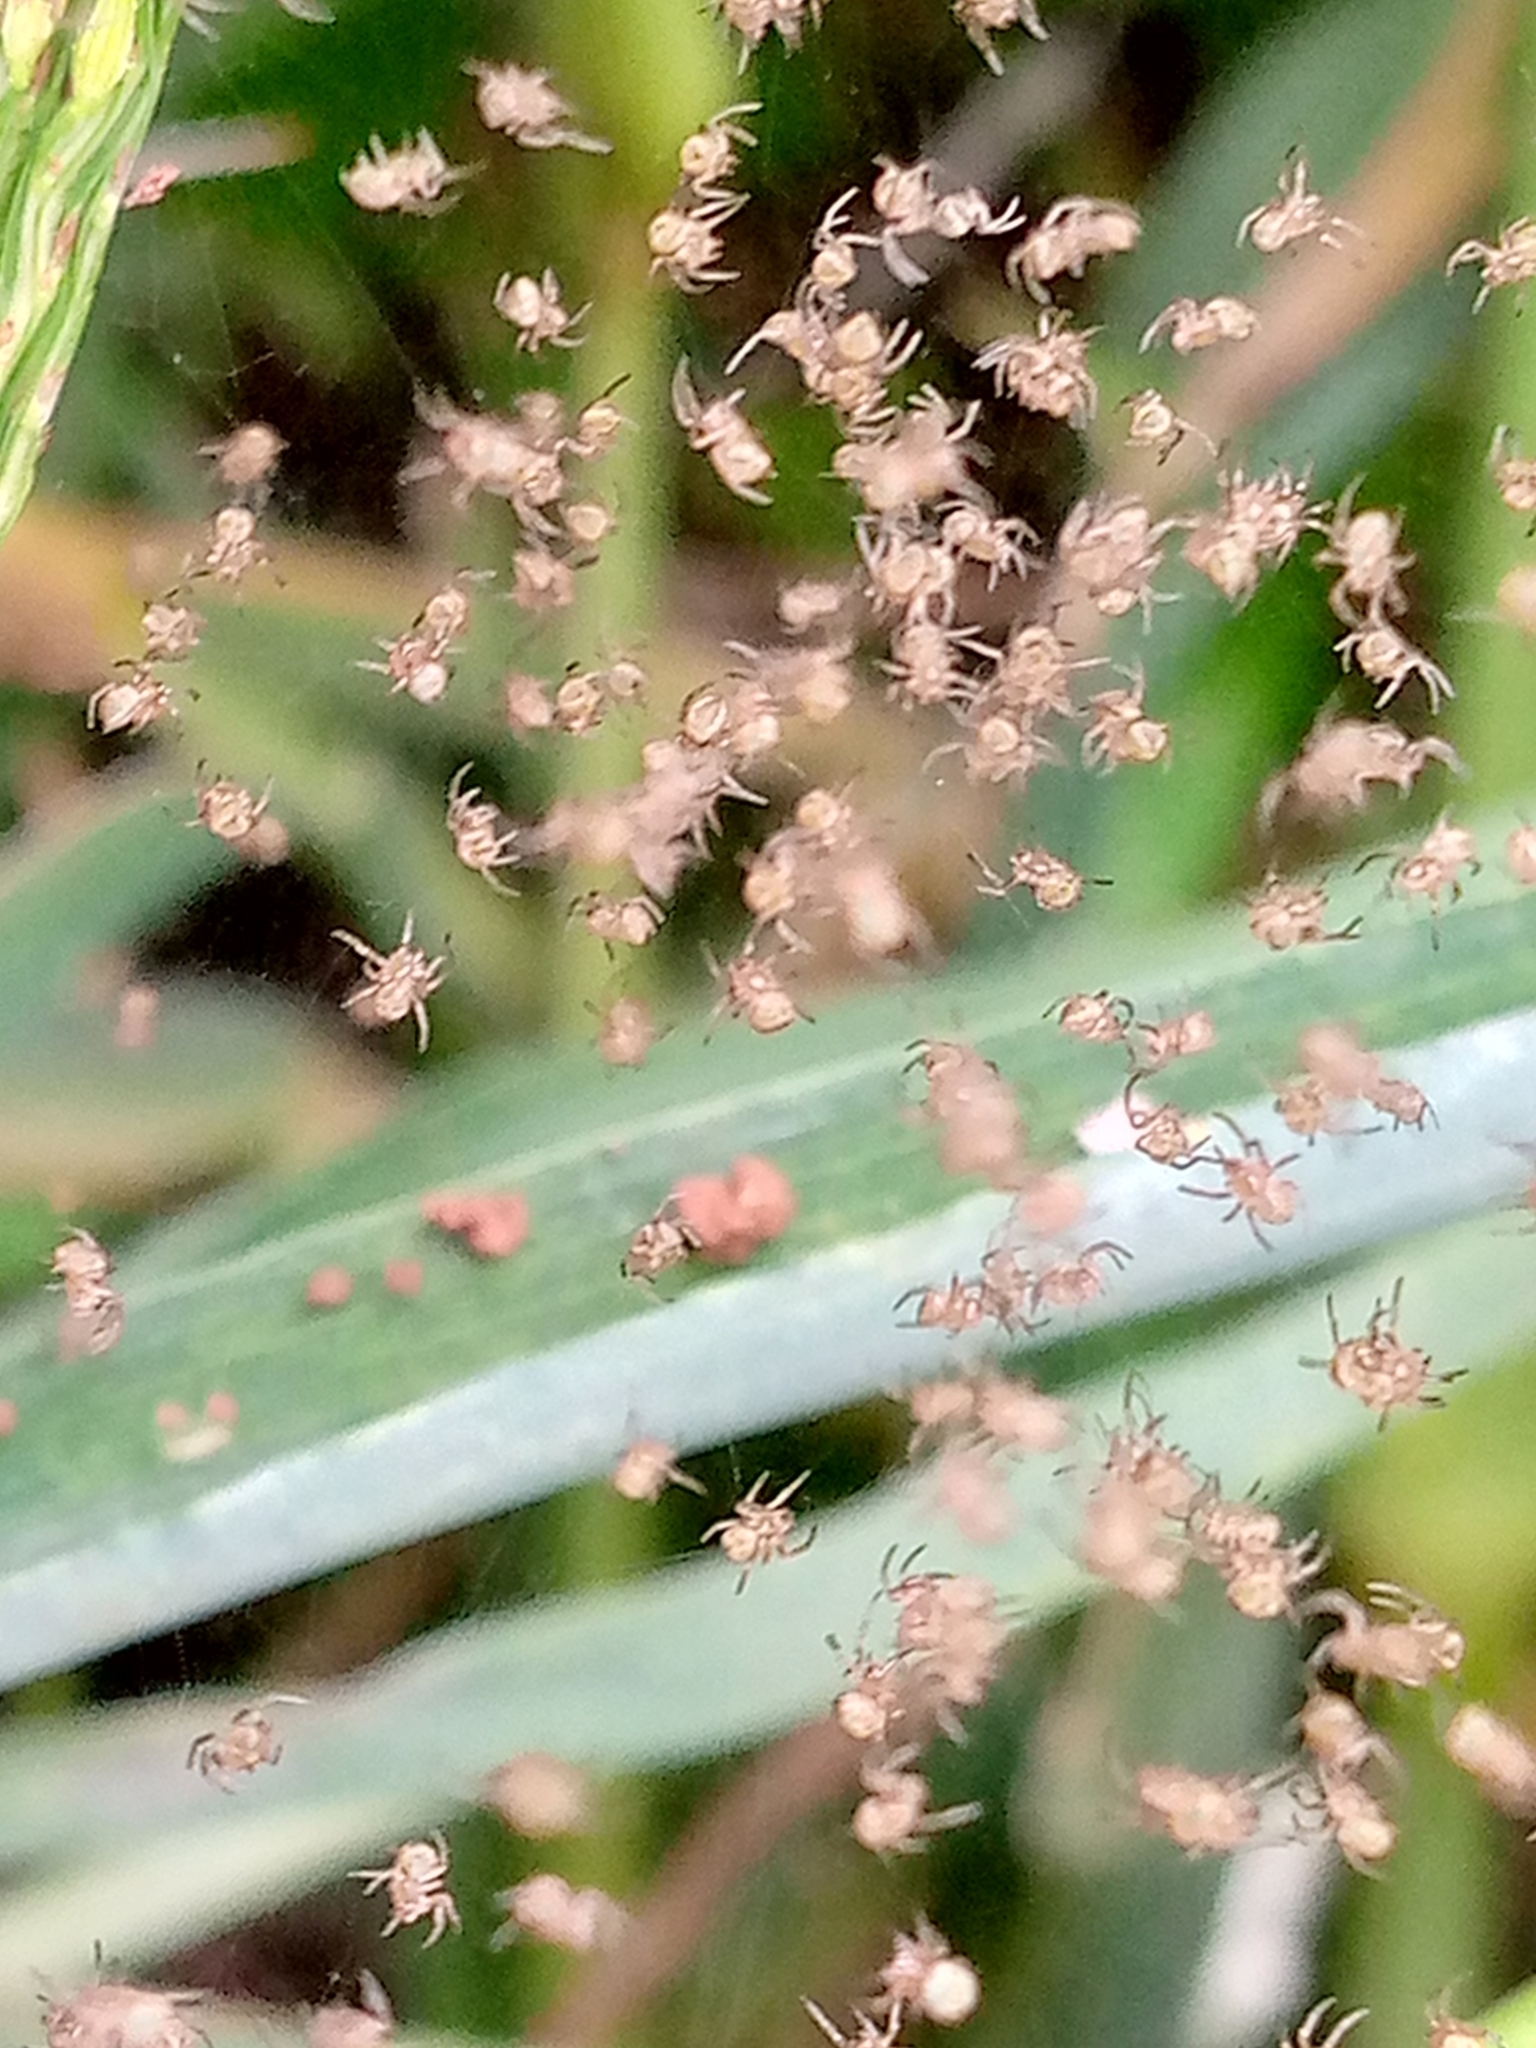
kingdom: Animalia
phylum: Arthropoda
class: Arachnida
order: Araneae
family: Araneidae
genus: Argiope
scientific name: Argiope argentata
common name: Orb weavers
